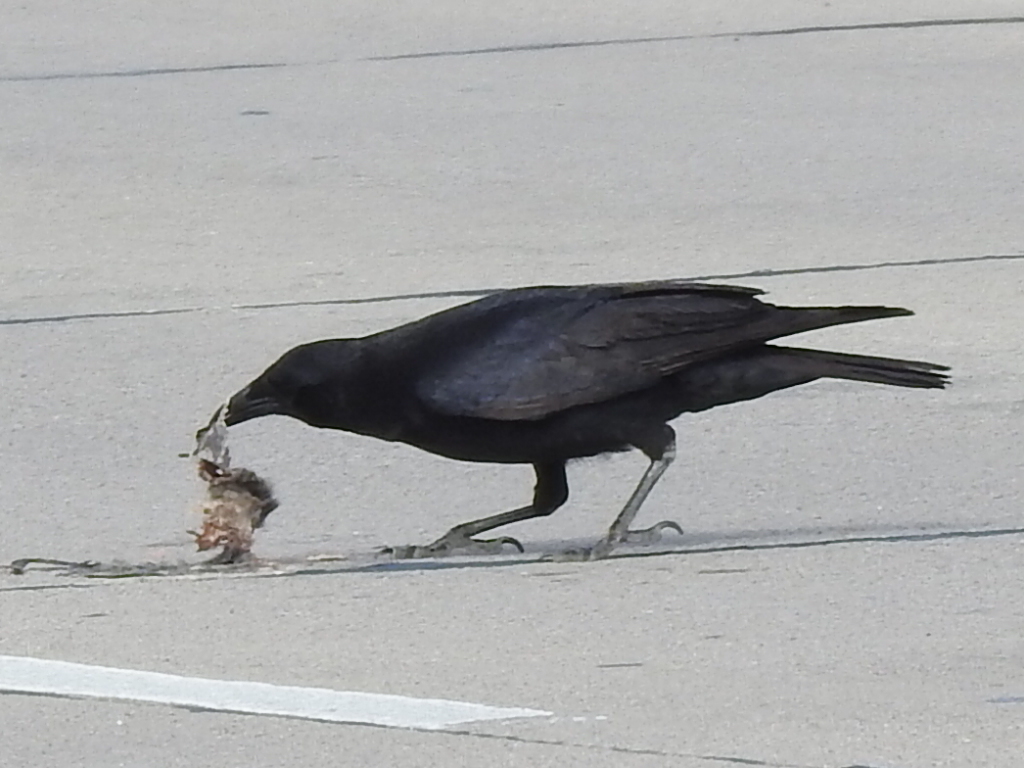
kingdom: Animalia
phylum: Chordata
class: Aves
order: Passeriformes
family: Corvidae
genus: Corvus
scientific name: Corvus brachyrhynchos
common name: American crow
